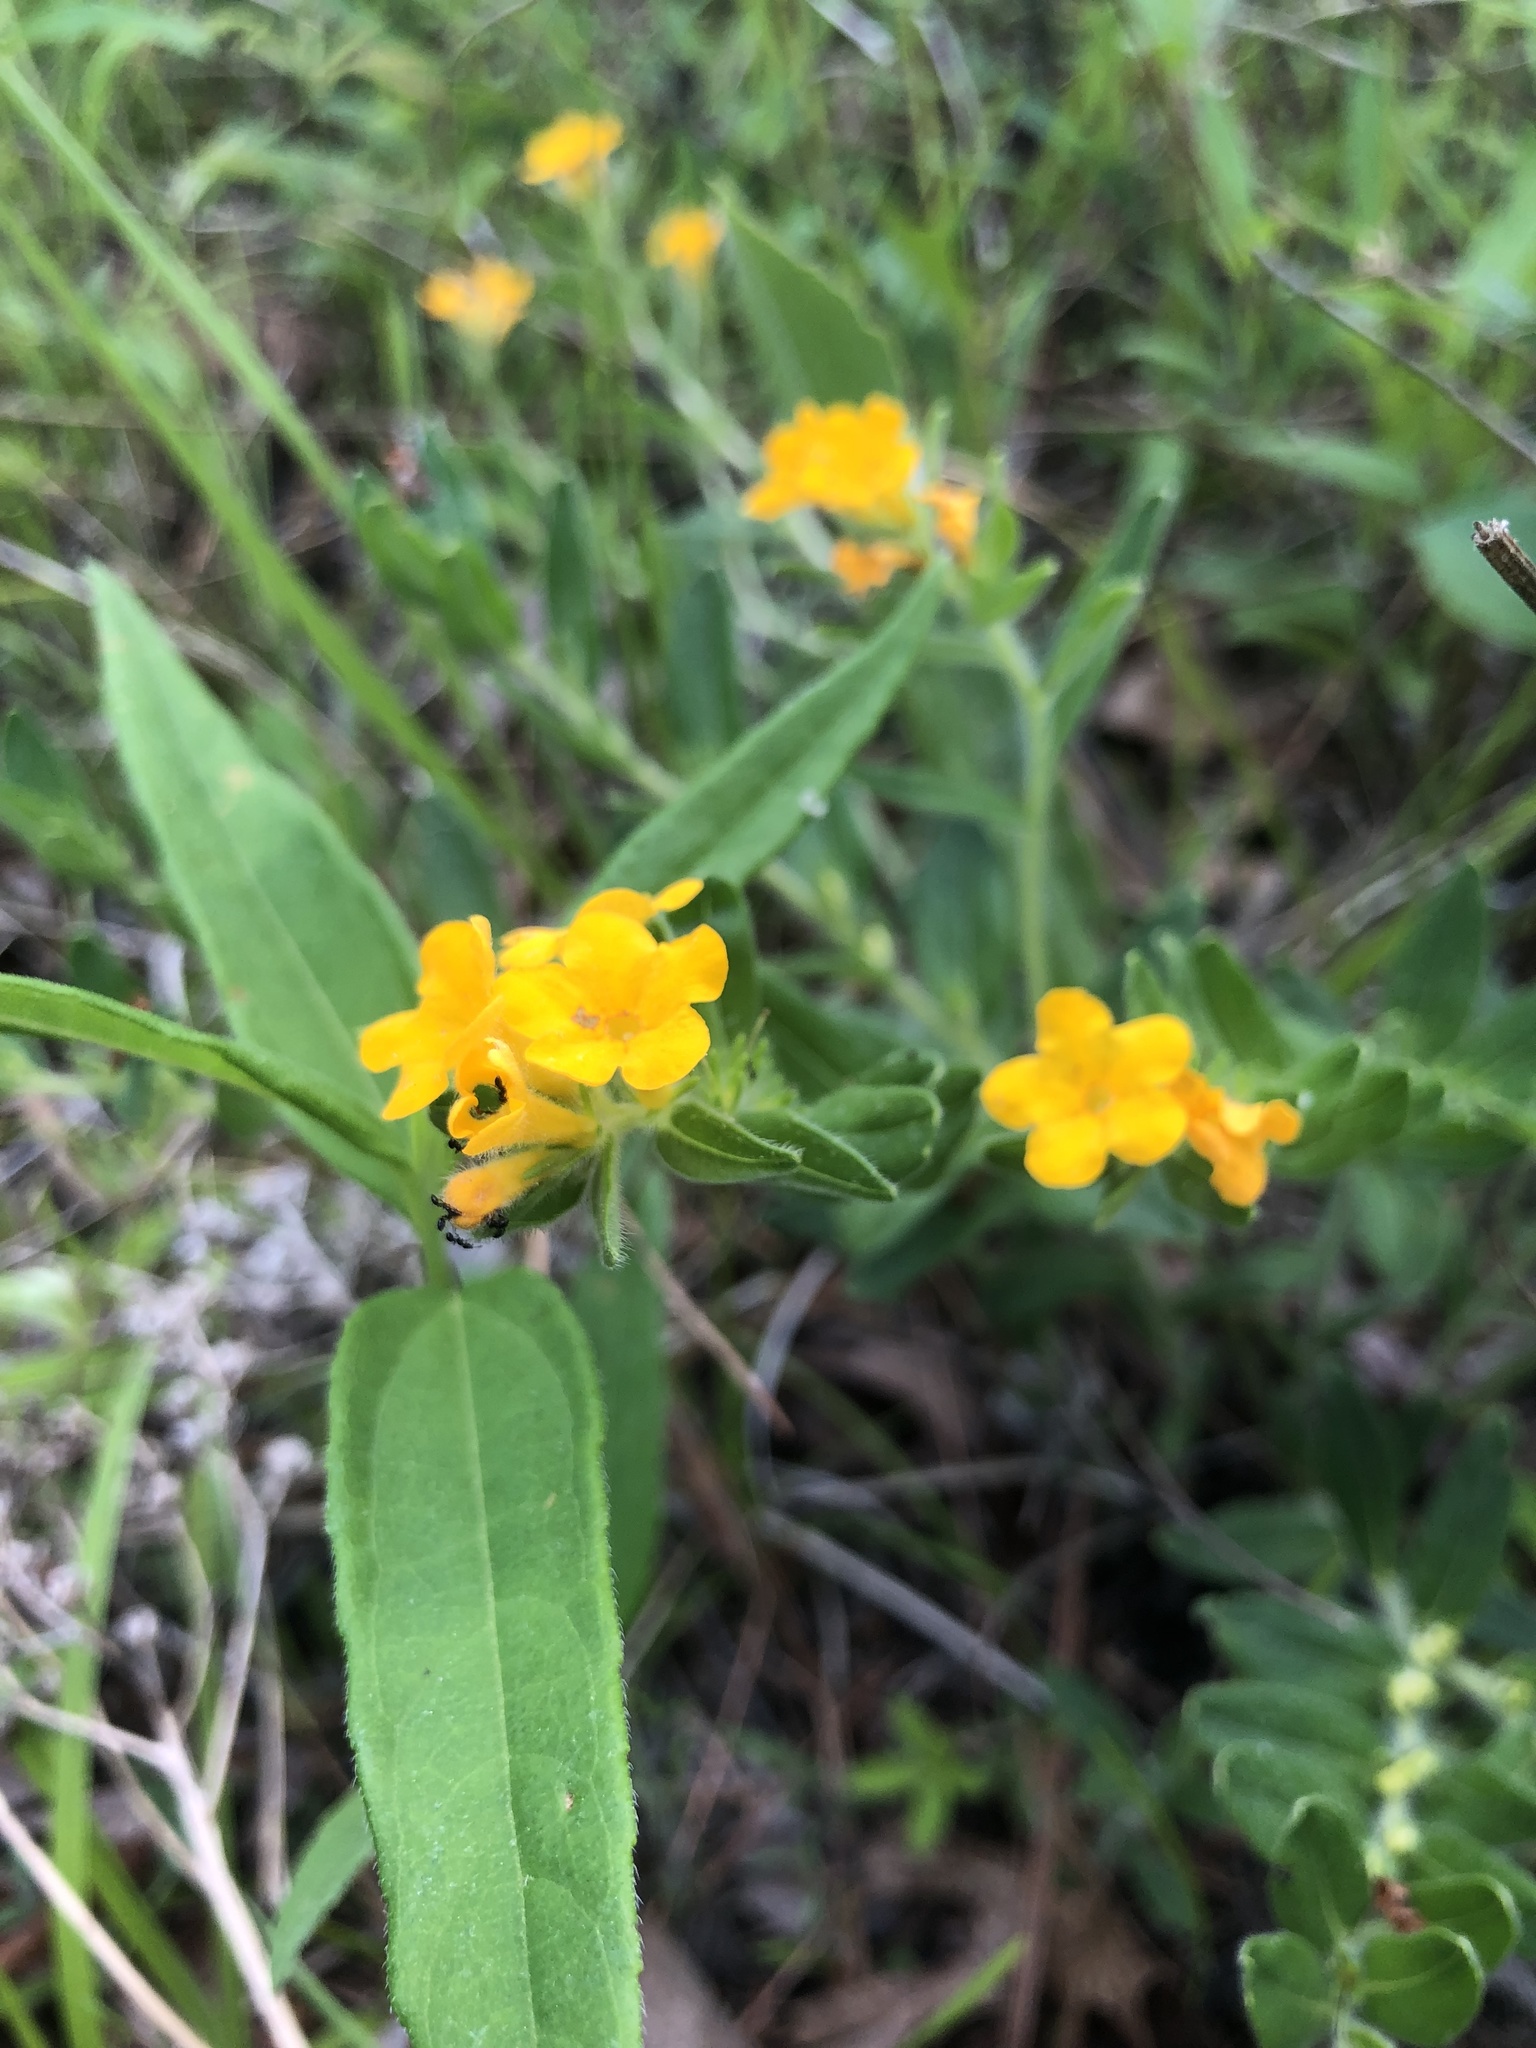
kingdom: Plantae
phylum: Tracheophyta
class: Magnoliopsida
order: Boraginales
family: Boraginaceae
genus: Lithospermum
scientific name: Lithospermum canescens
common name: Hoary puccoon
